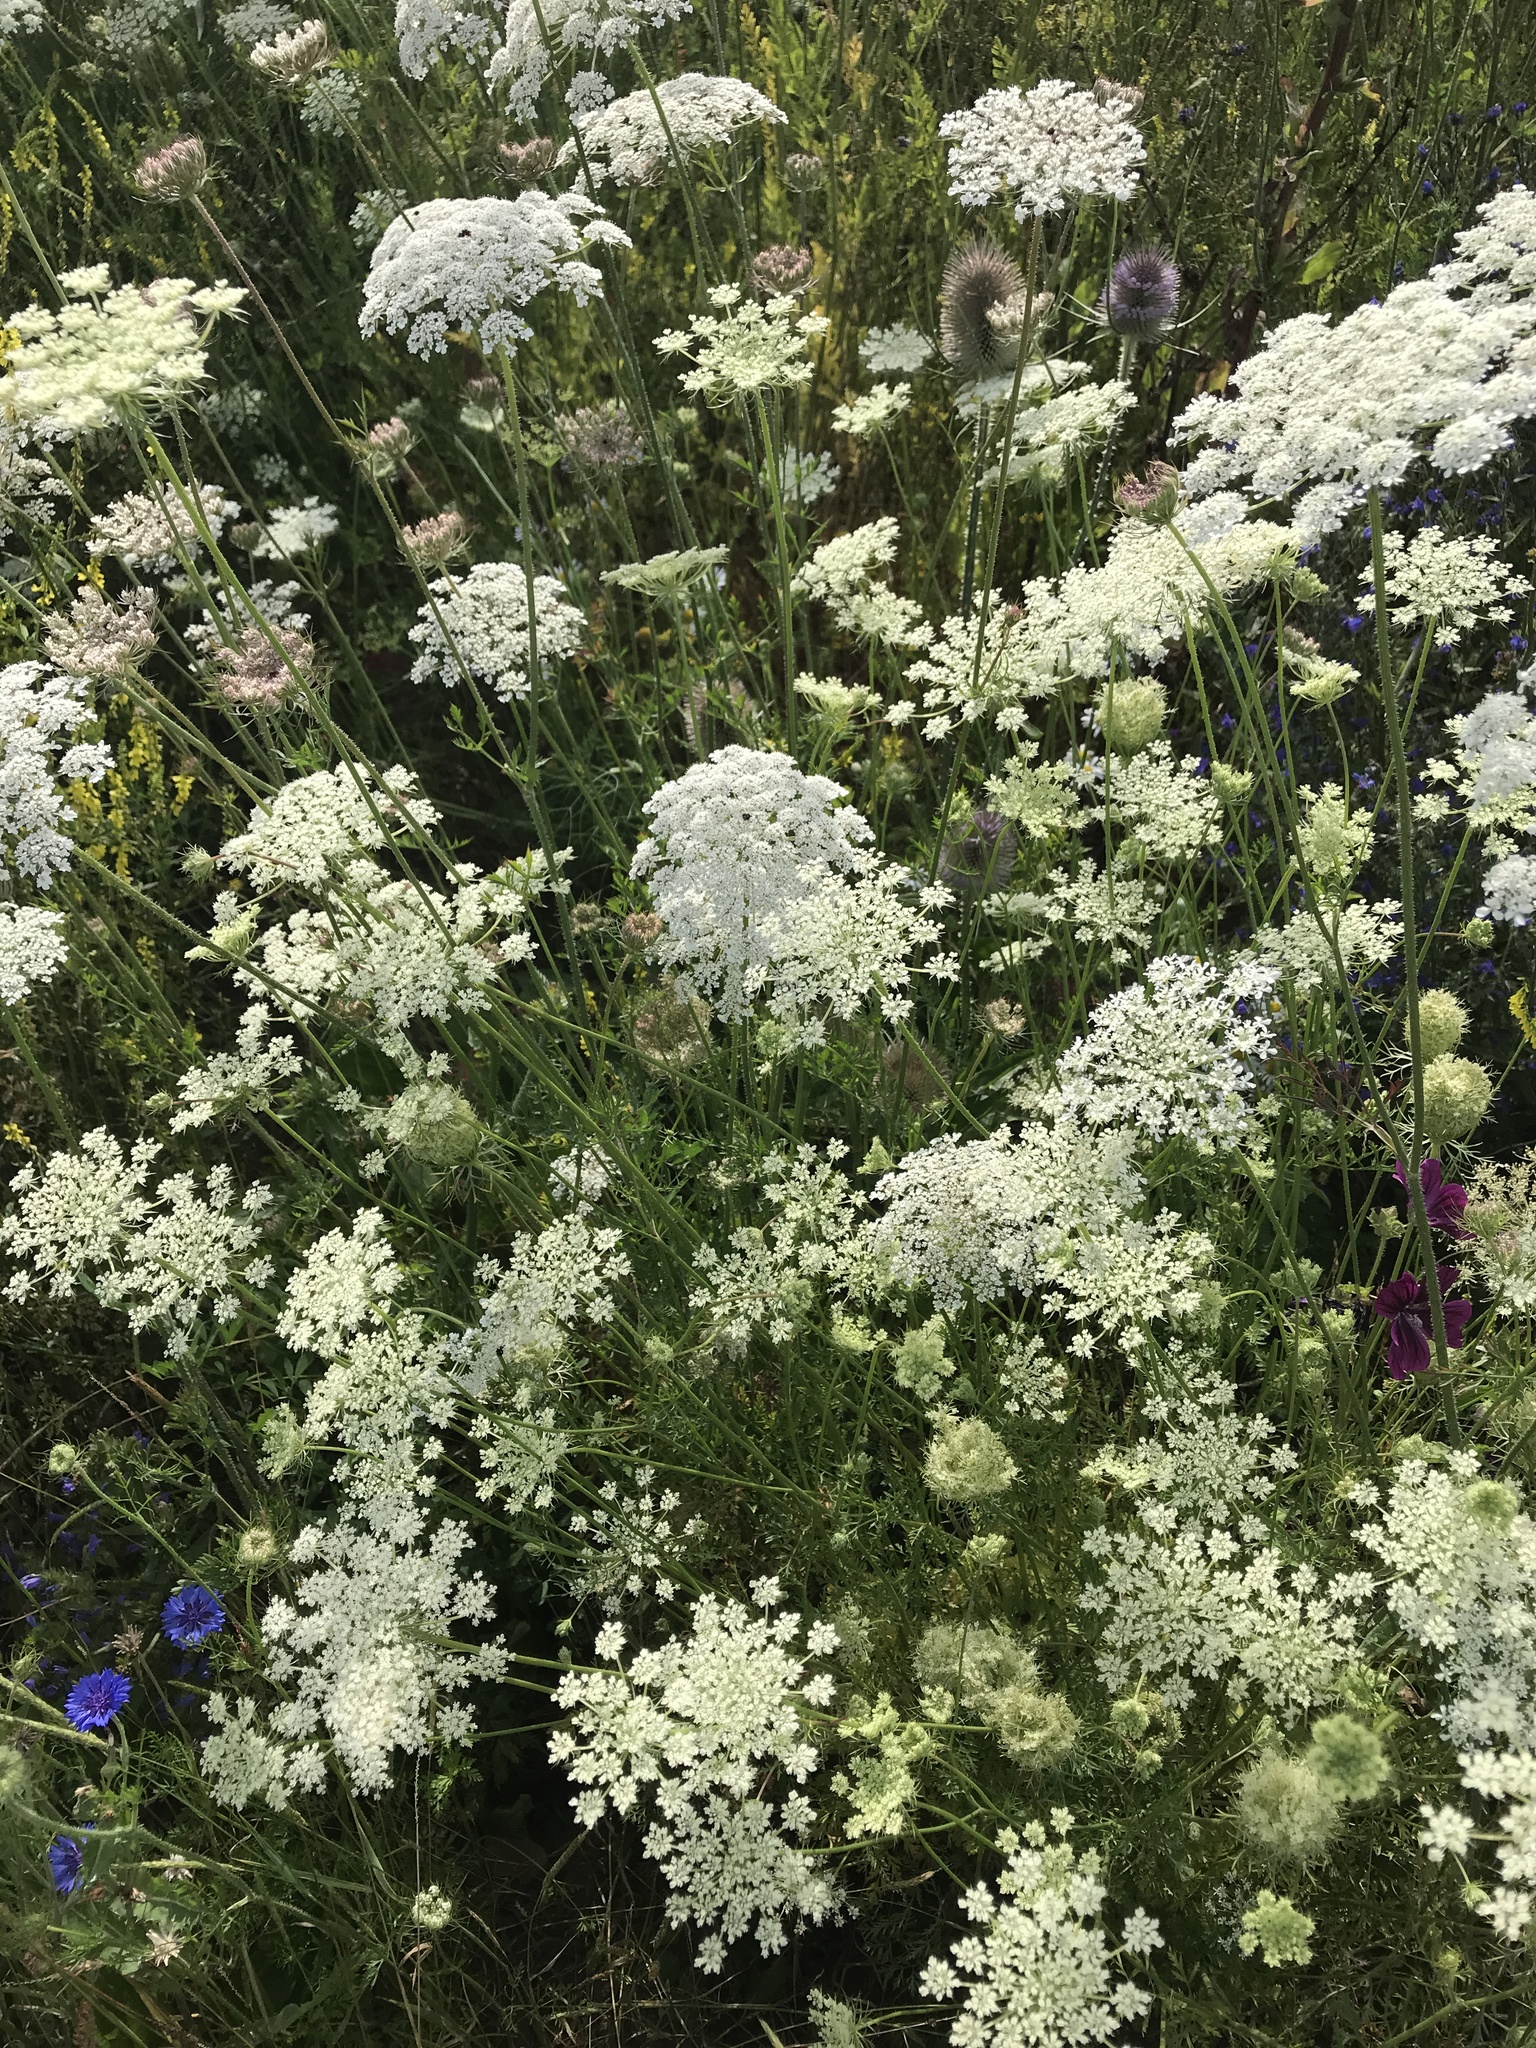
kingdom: Plantae
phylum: Tracheophyta
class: Magnoliopsida
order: Apiales
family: Apiaceae
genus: Daucus
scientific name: Daucus carota
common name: Wild carrot
